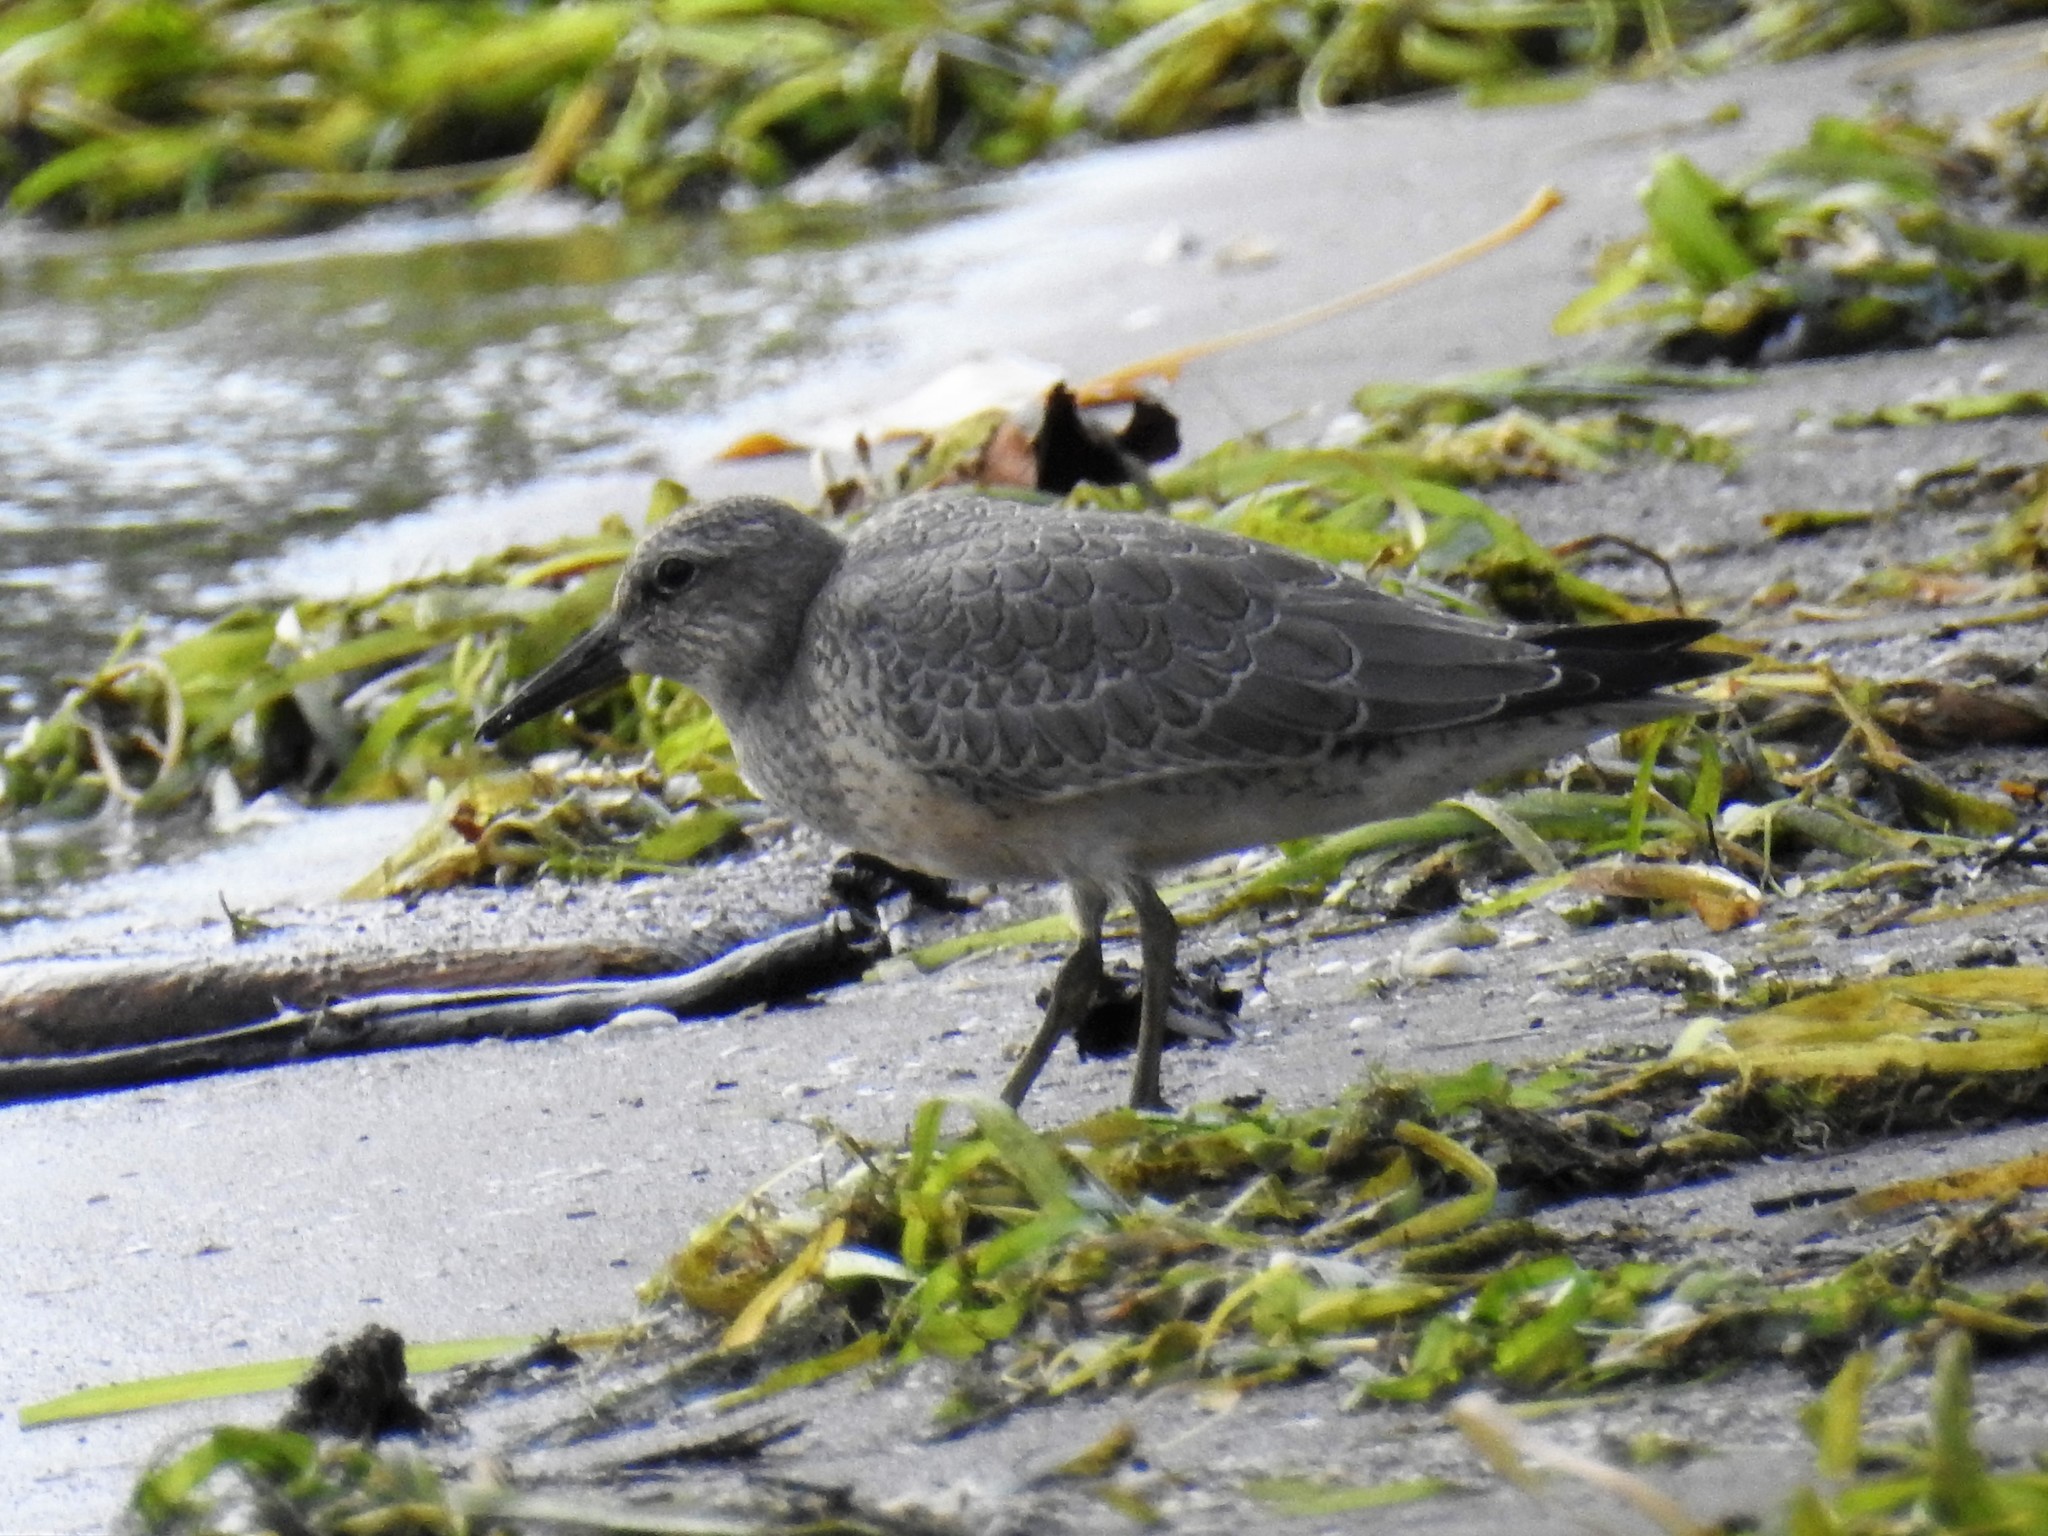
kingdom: Animalia
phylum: Chordata
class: Aves
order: Charadriiformes
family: Scolopacidae
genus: Calidris
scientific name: Calidris canutus
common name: Red knot
